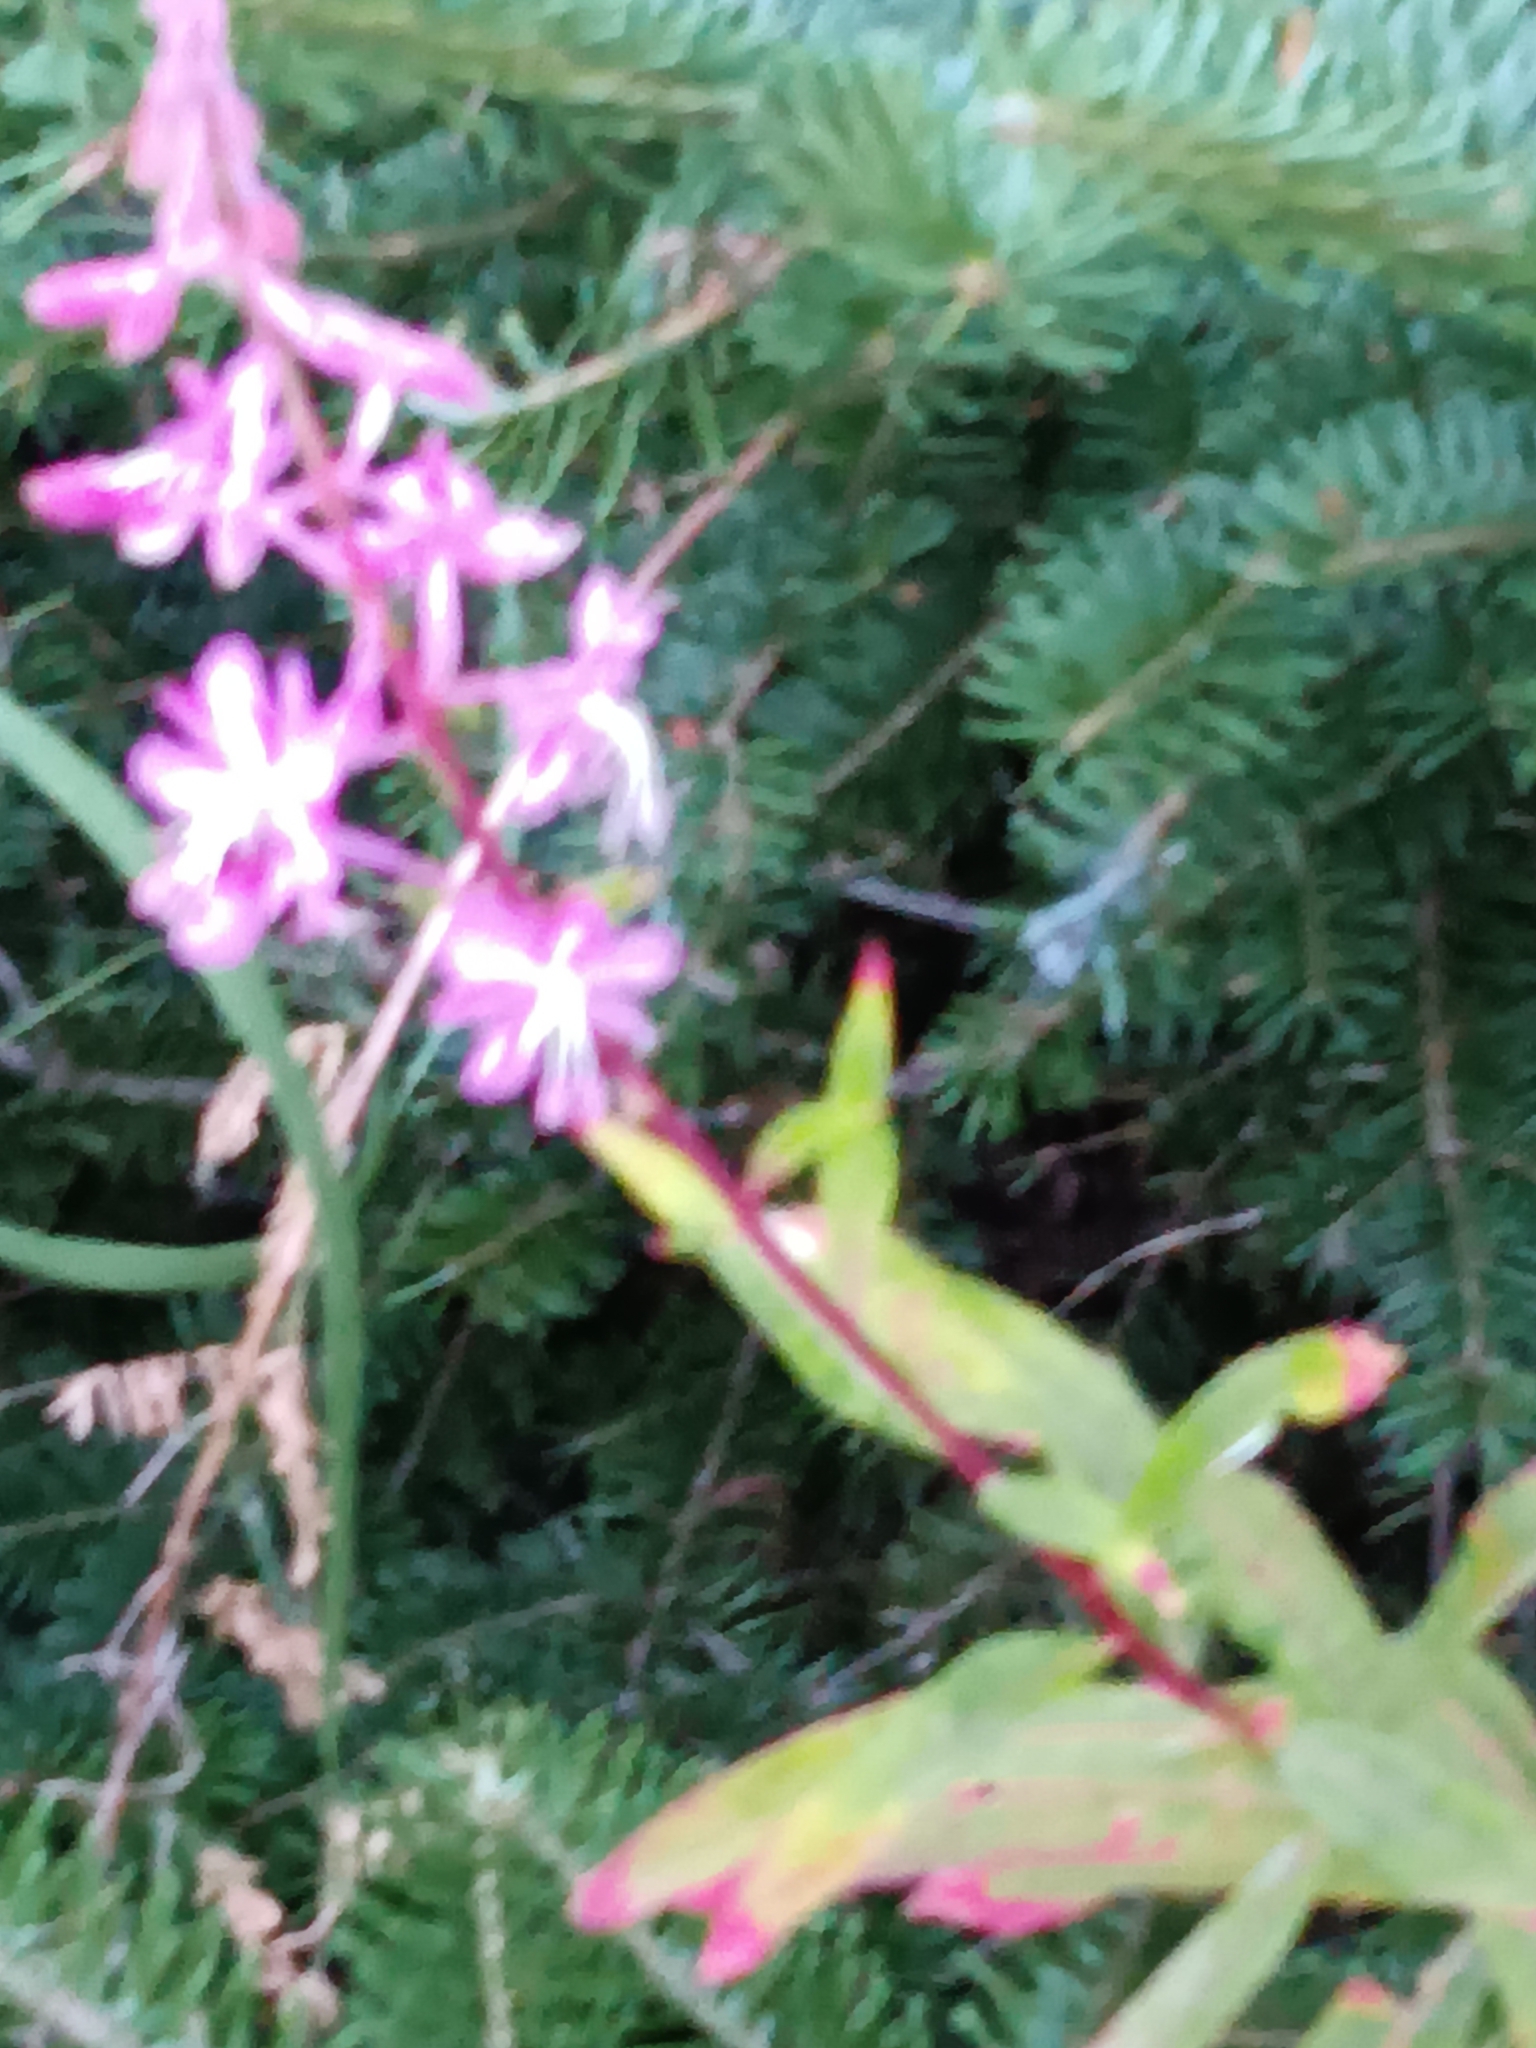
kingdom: Plantae
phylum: Tracheophyta
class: Magnoliopsida
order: Myrtales
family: Onagraceae
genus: Chamaenerion
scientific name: Chamaenerion angustifolium
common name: Fireweed
